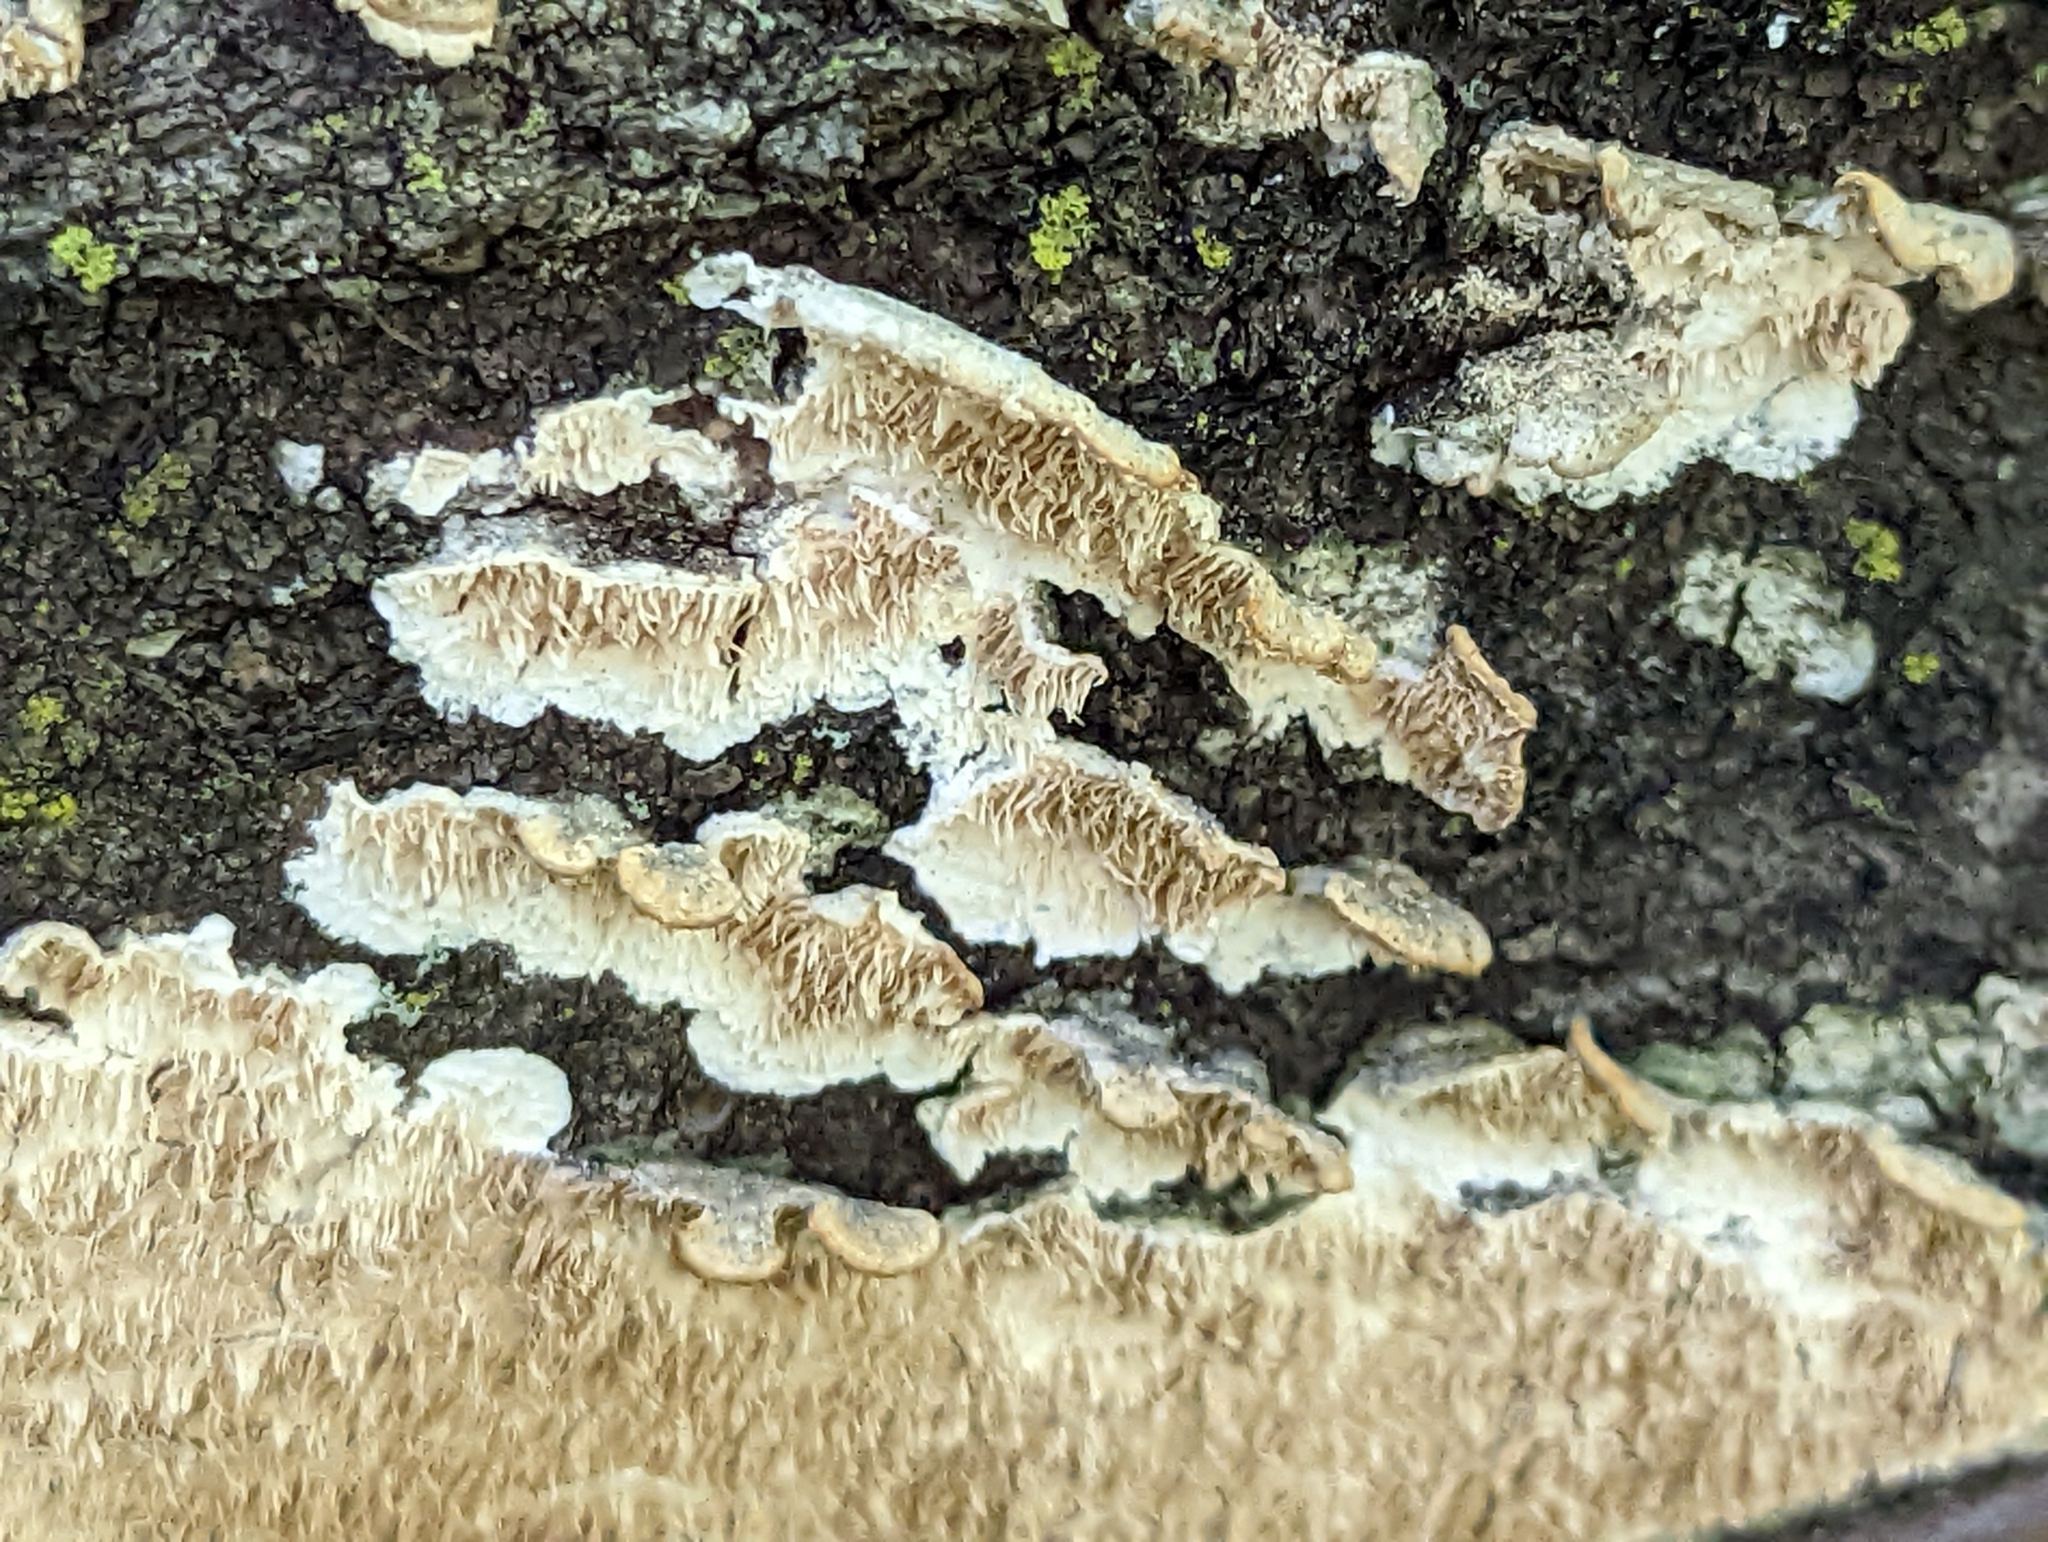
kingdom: Fungi
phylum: Basidiomycota
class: Agaricomycetes
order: Polyporales
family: Irpicaceae
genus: Irpex
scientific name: Irpex lacteus
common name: Milk-white toothed polypore
